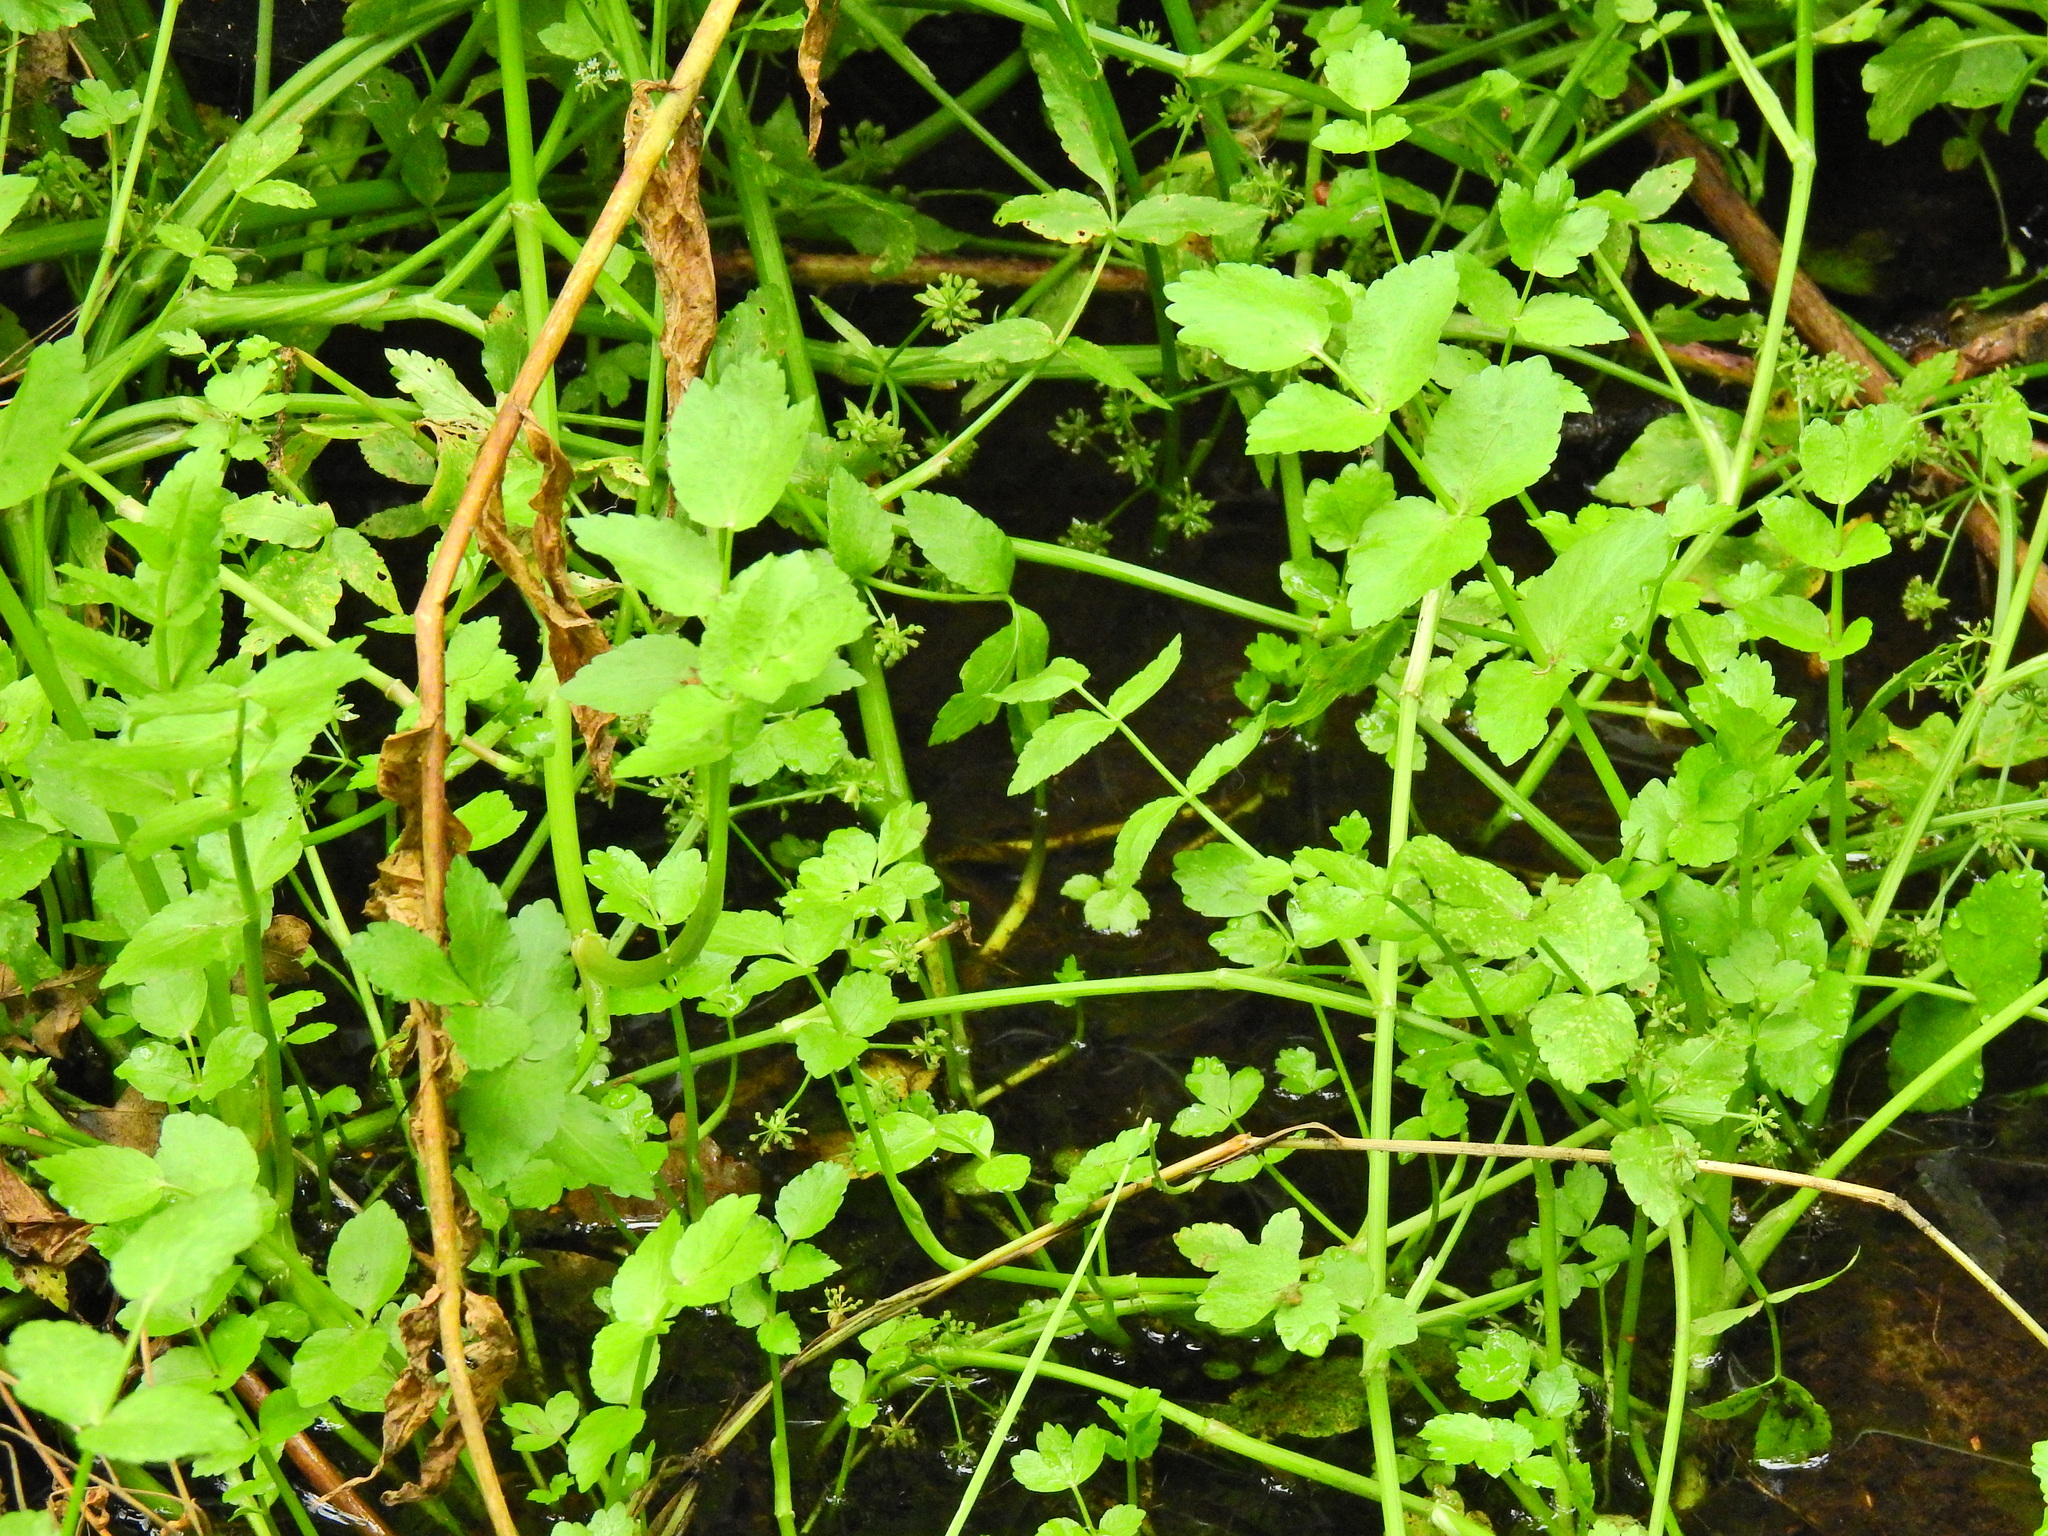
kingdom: Plantae
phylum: Tracheophyta
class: Magnoliopsida
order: Apiales
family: Apiaceae
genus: Helosciadium
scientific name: Helosciadium nodiflorum
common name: Fool's-watercress
